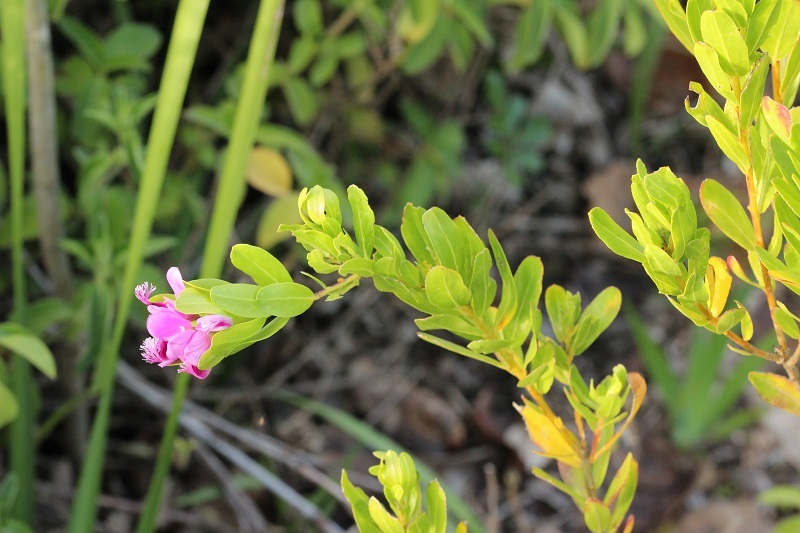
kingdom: Plantae
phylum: Tracheophyta
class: Magnoliopsida
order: Fabales
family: Polygalaceae
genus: Polygala
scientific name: Polygala myrtifolia
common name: Myrtle-leaf milkwort
